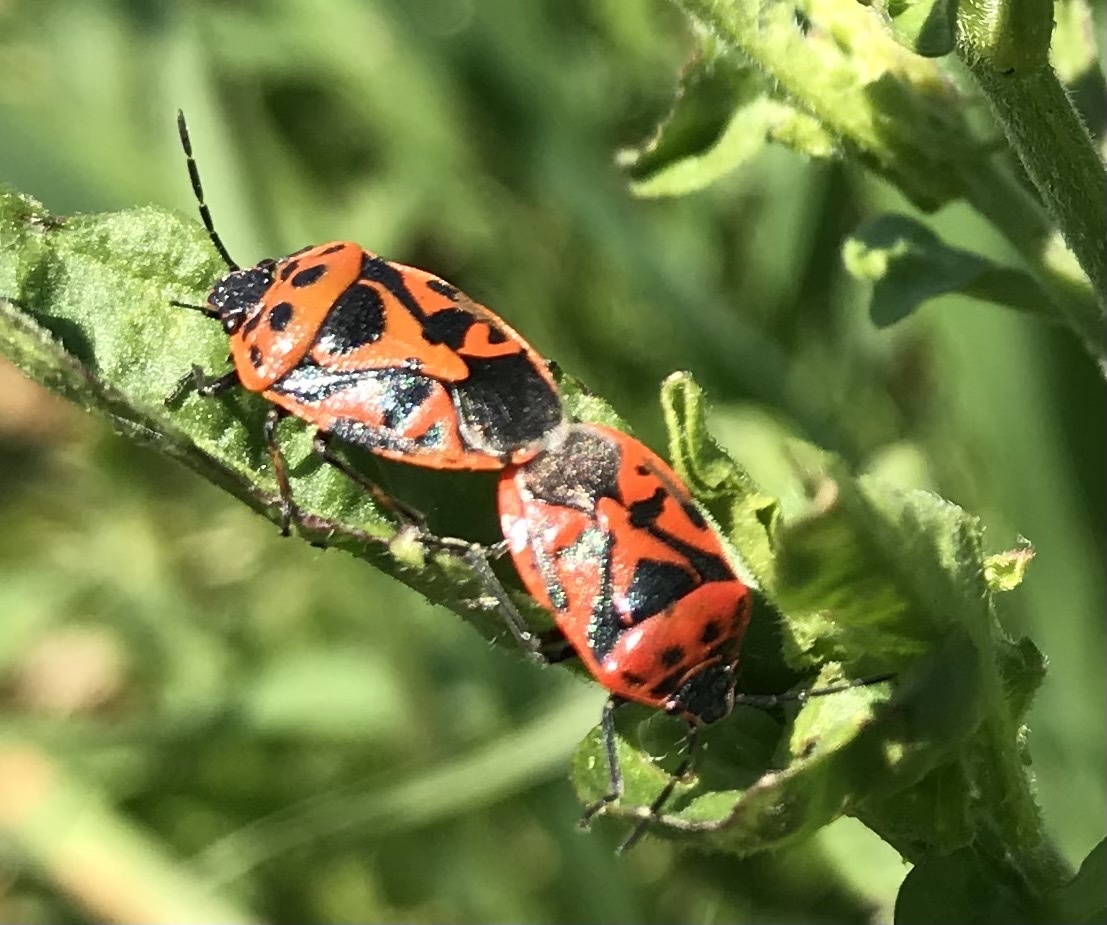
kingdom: Animalia
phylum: Arthropoda
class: Insecta
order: Hemiptera
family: Pentatomidae
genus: Eurydema
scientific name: Eurydema ornata
